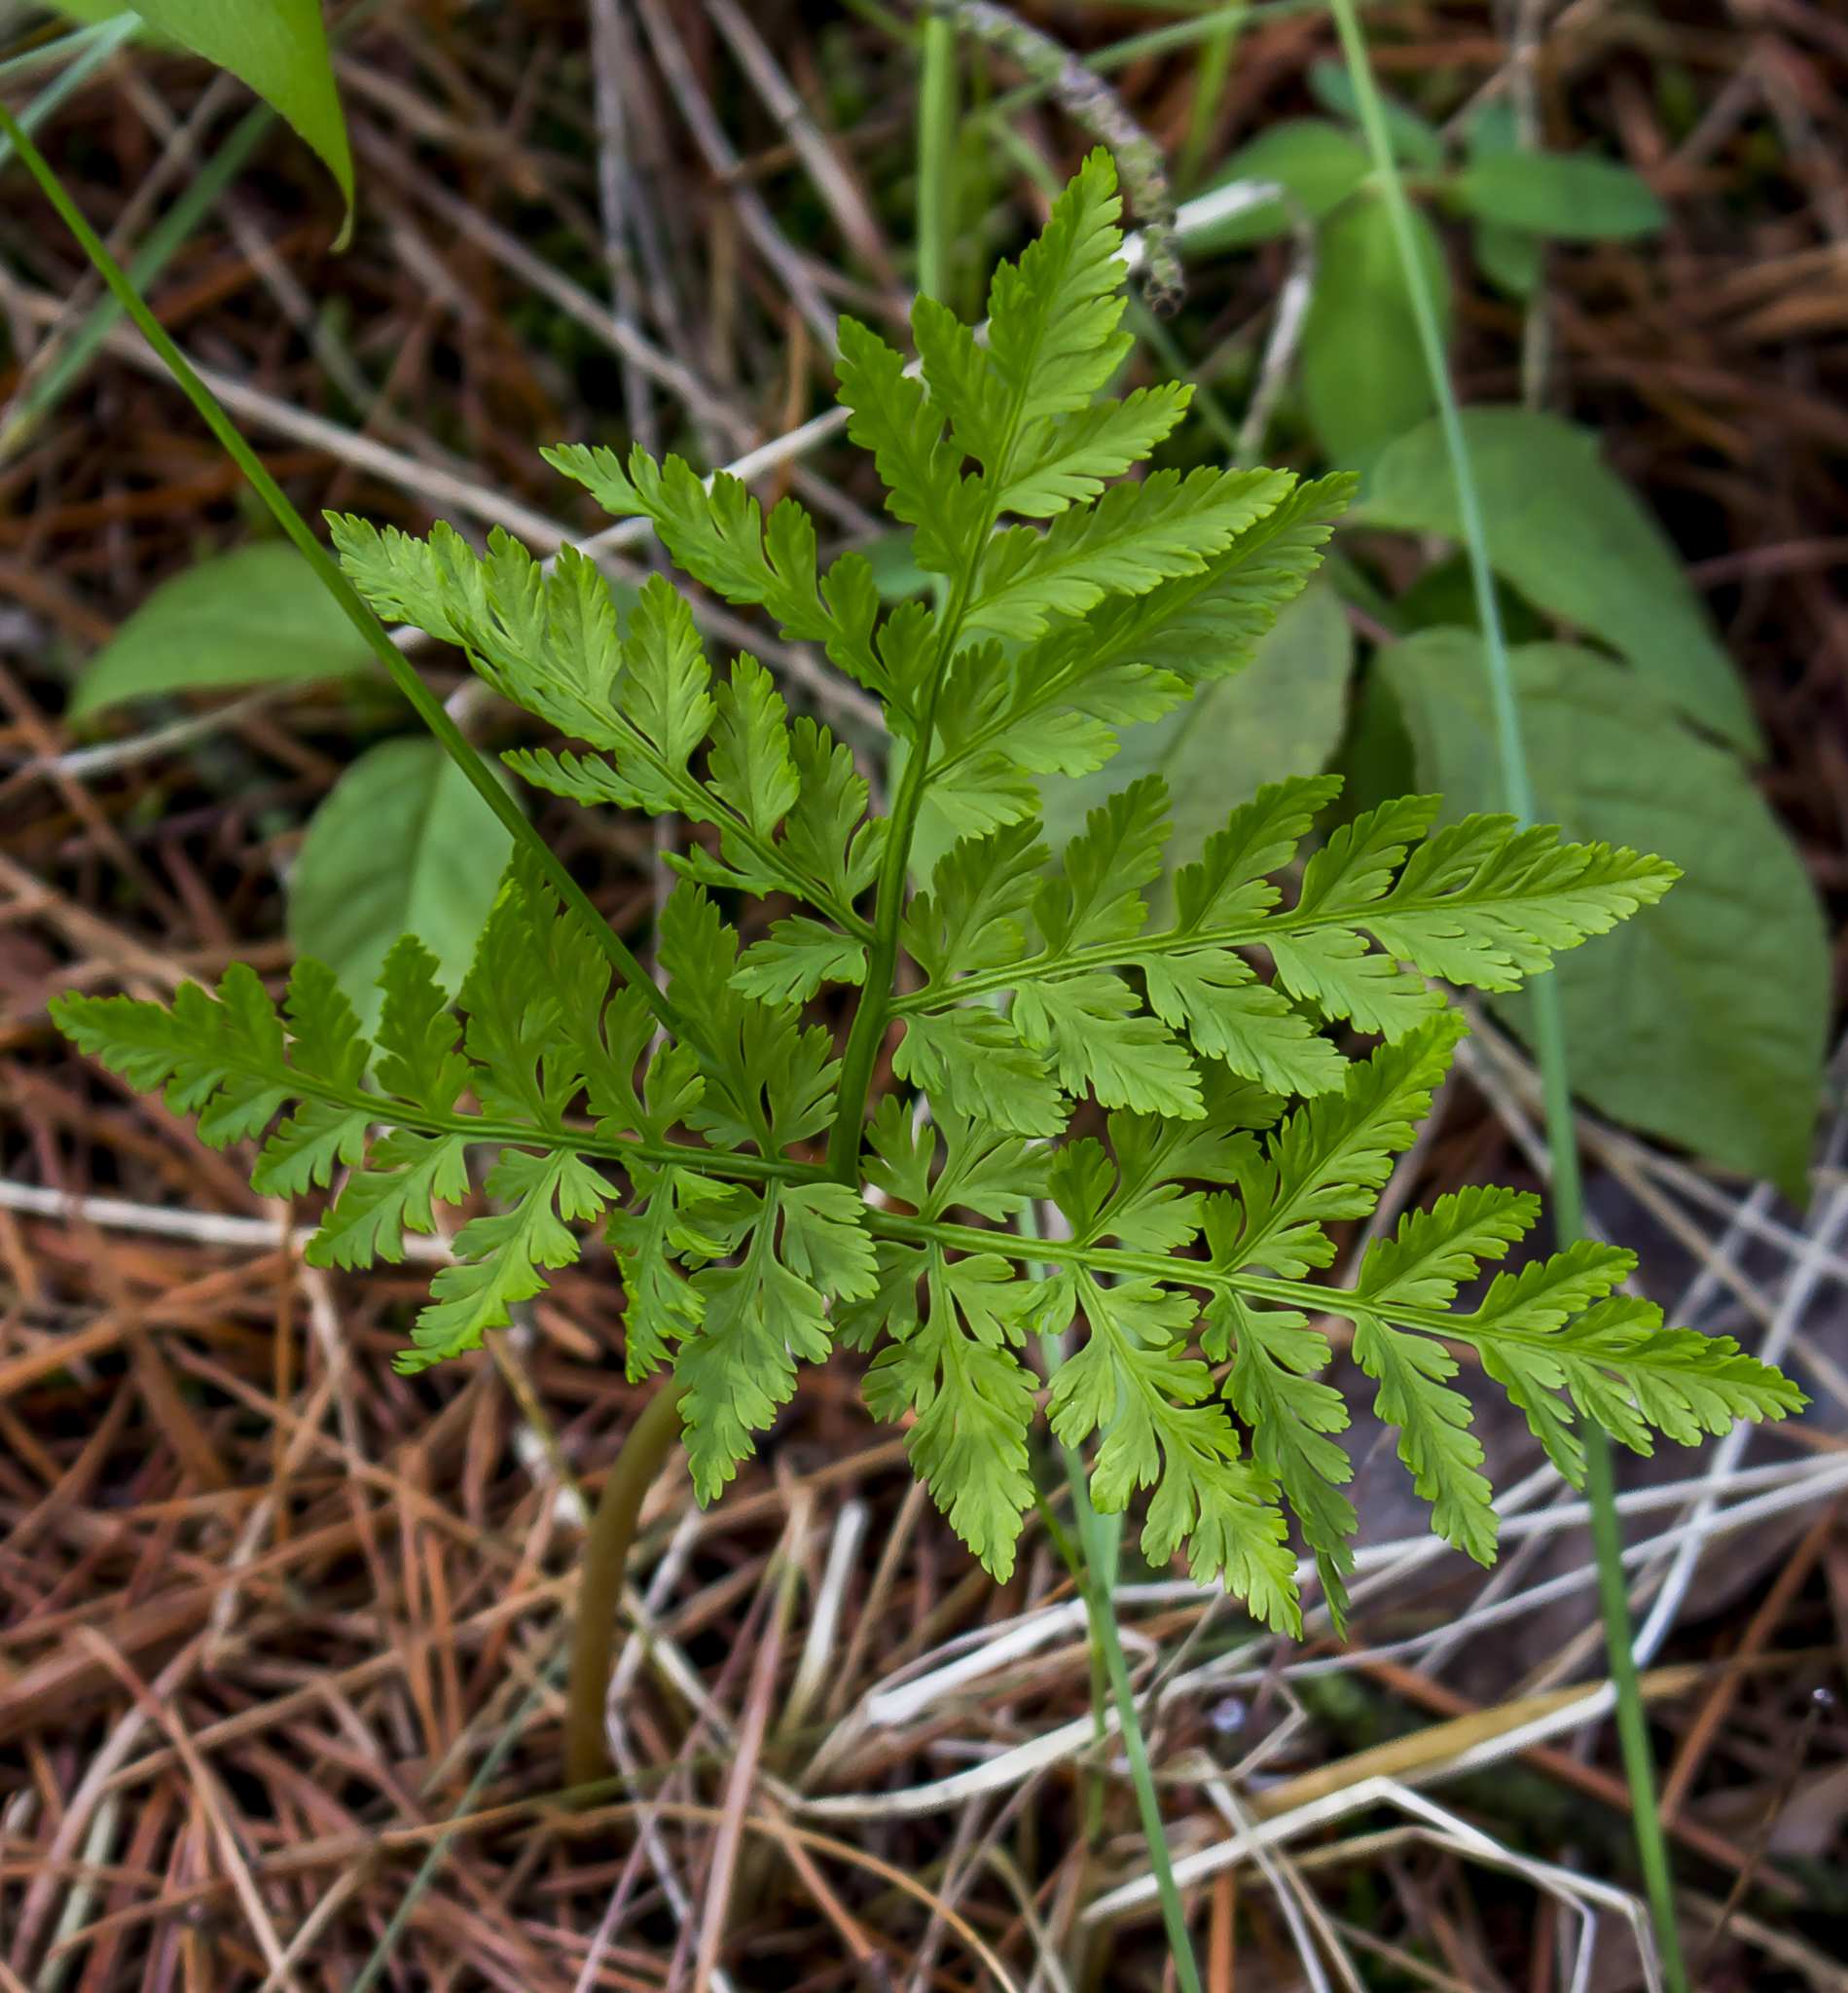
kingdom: Plantae
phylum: Tracheophyta
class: Polypodiopsida
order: Ophioglossales
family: Ophioglossaceae
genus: Botrypus
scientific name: Botrypus virginianus
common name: Common grapefern
